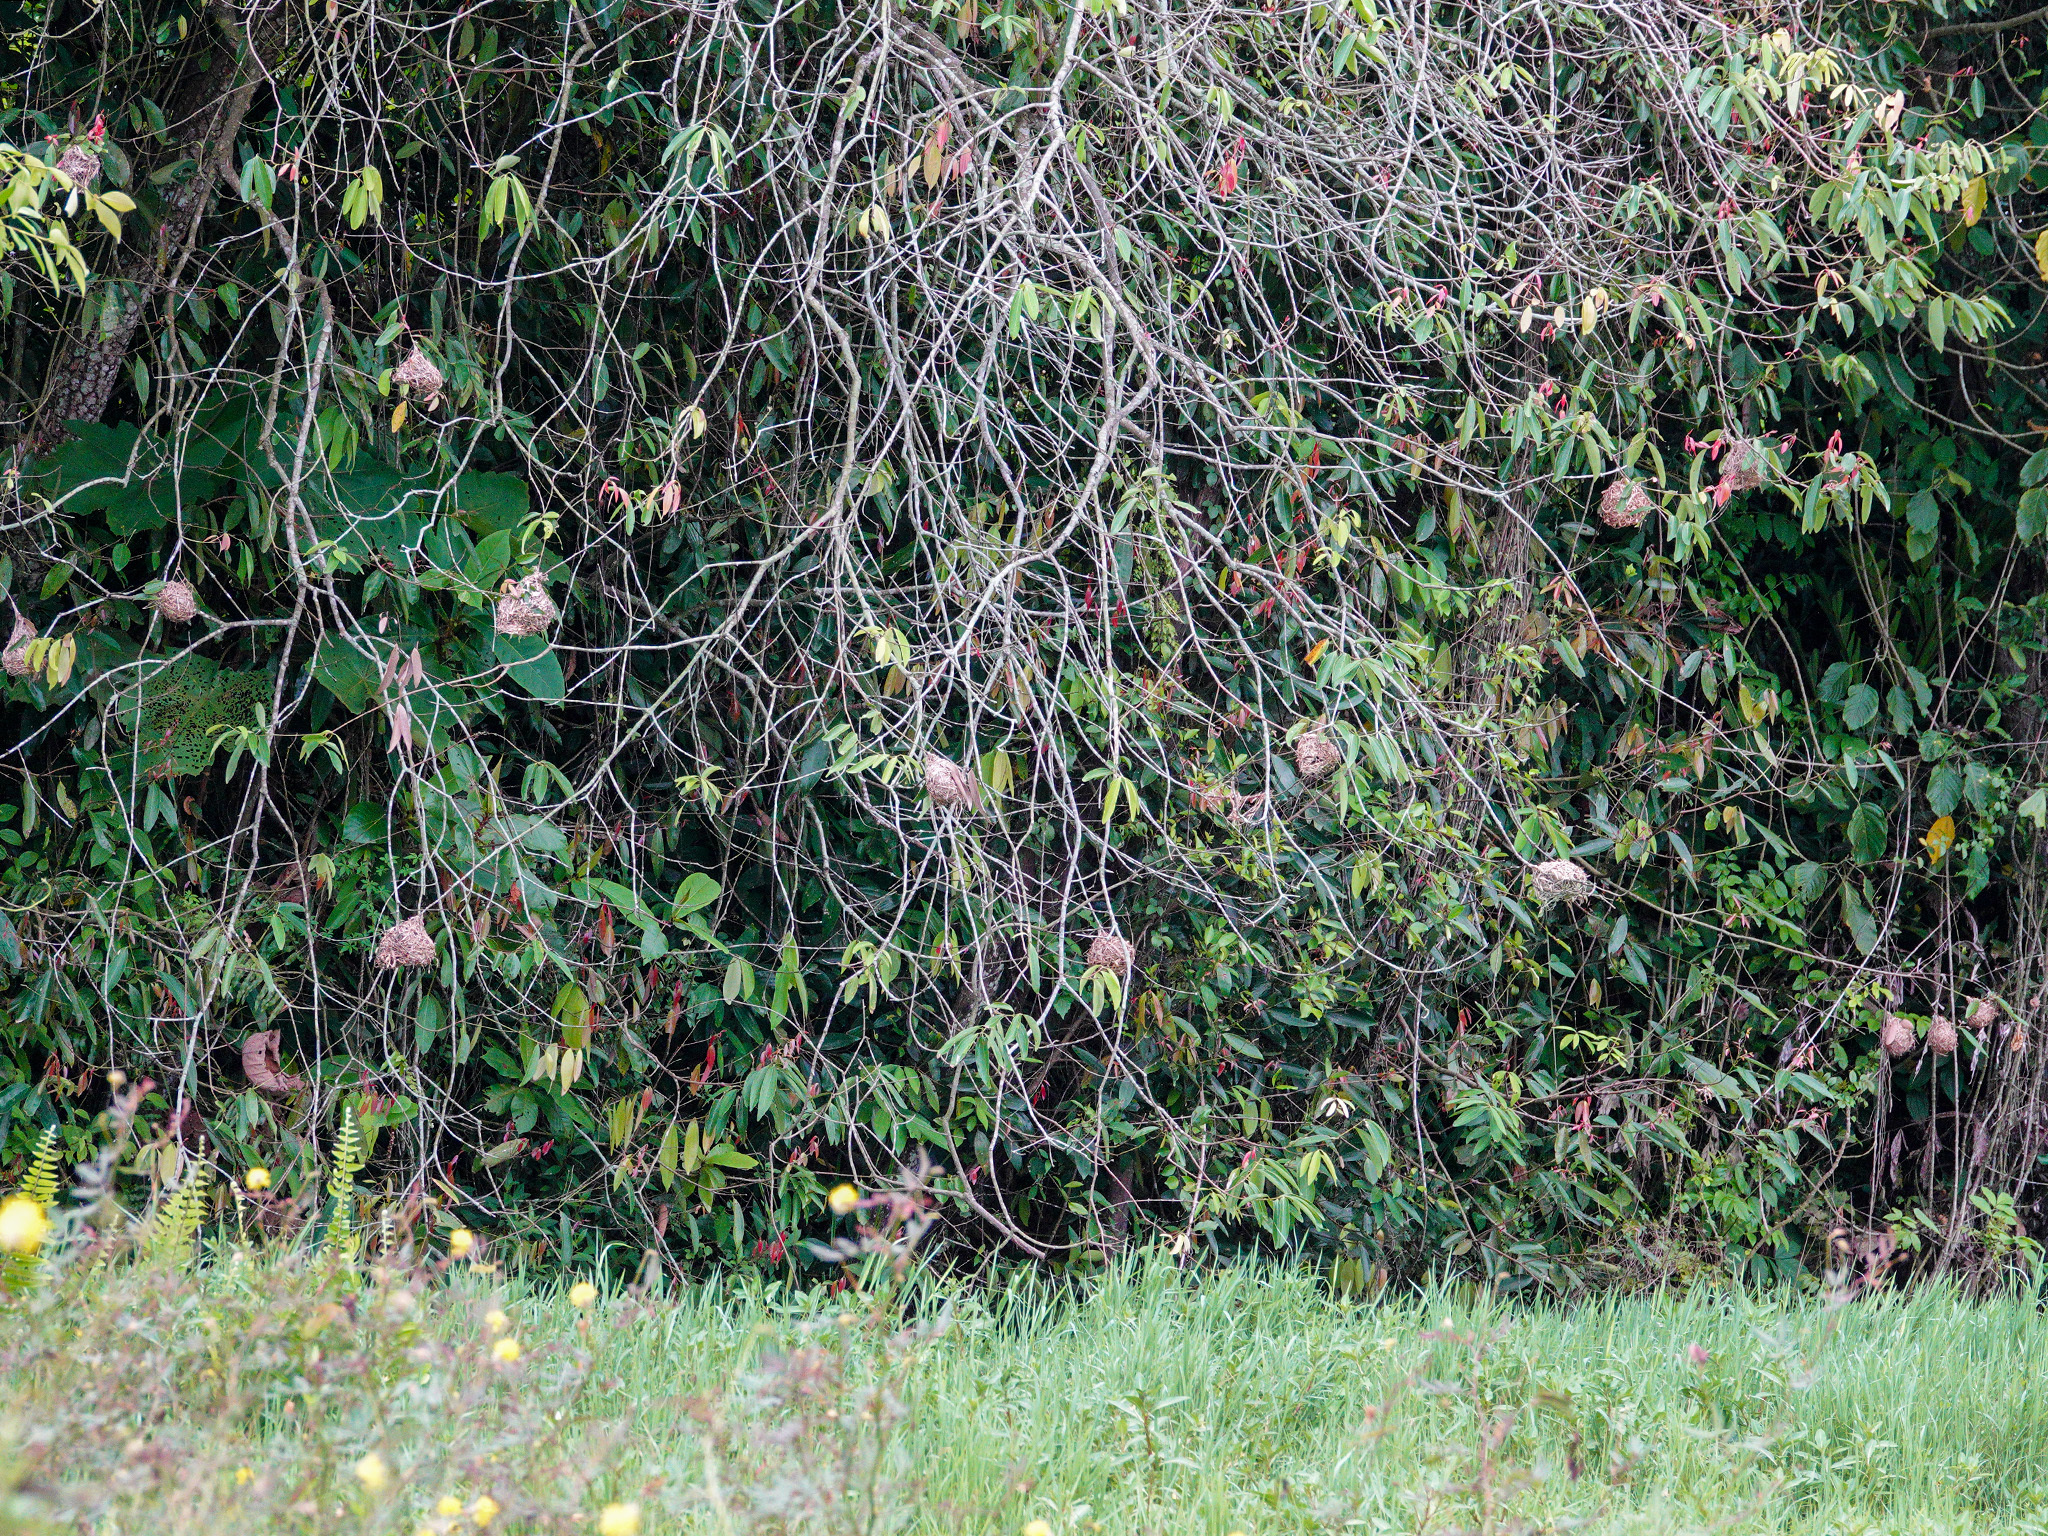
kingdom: Animalia
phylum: Chordata
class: Aves
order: Passeriformes
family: Ploceidae
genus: Ploceus
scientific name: Ploceus jacksoni
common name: Golden-backed weaver
